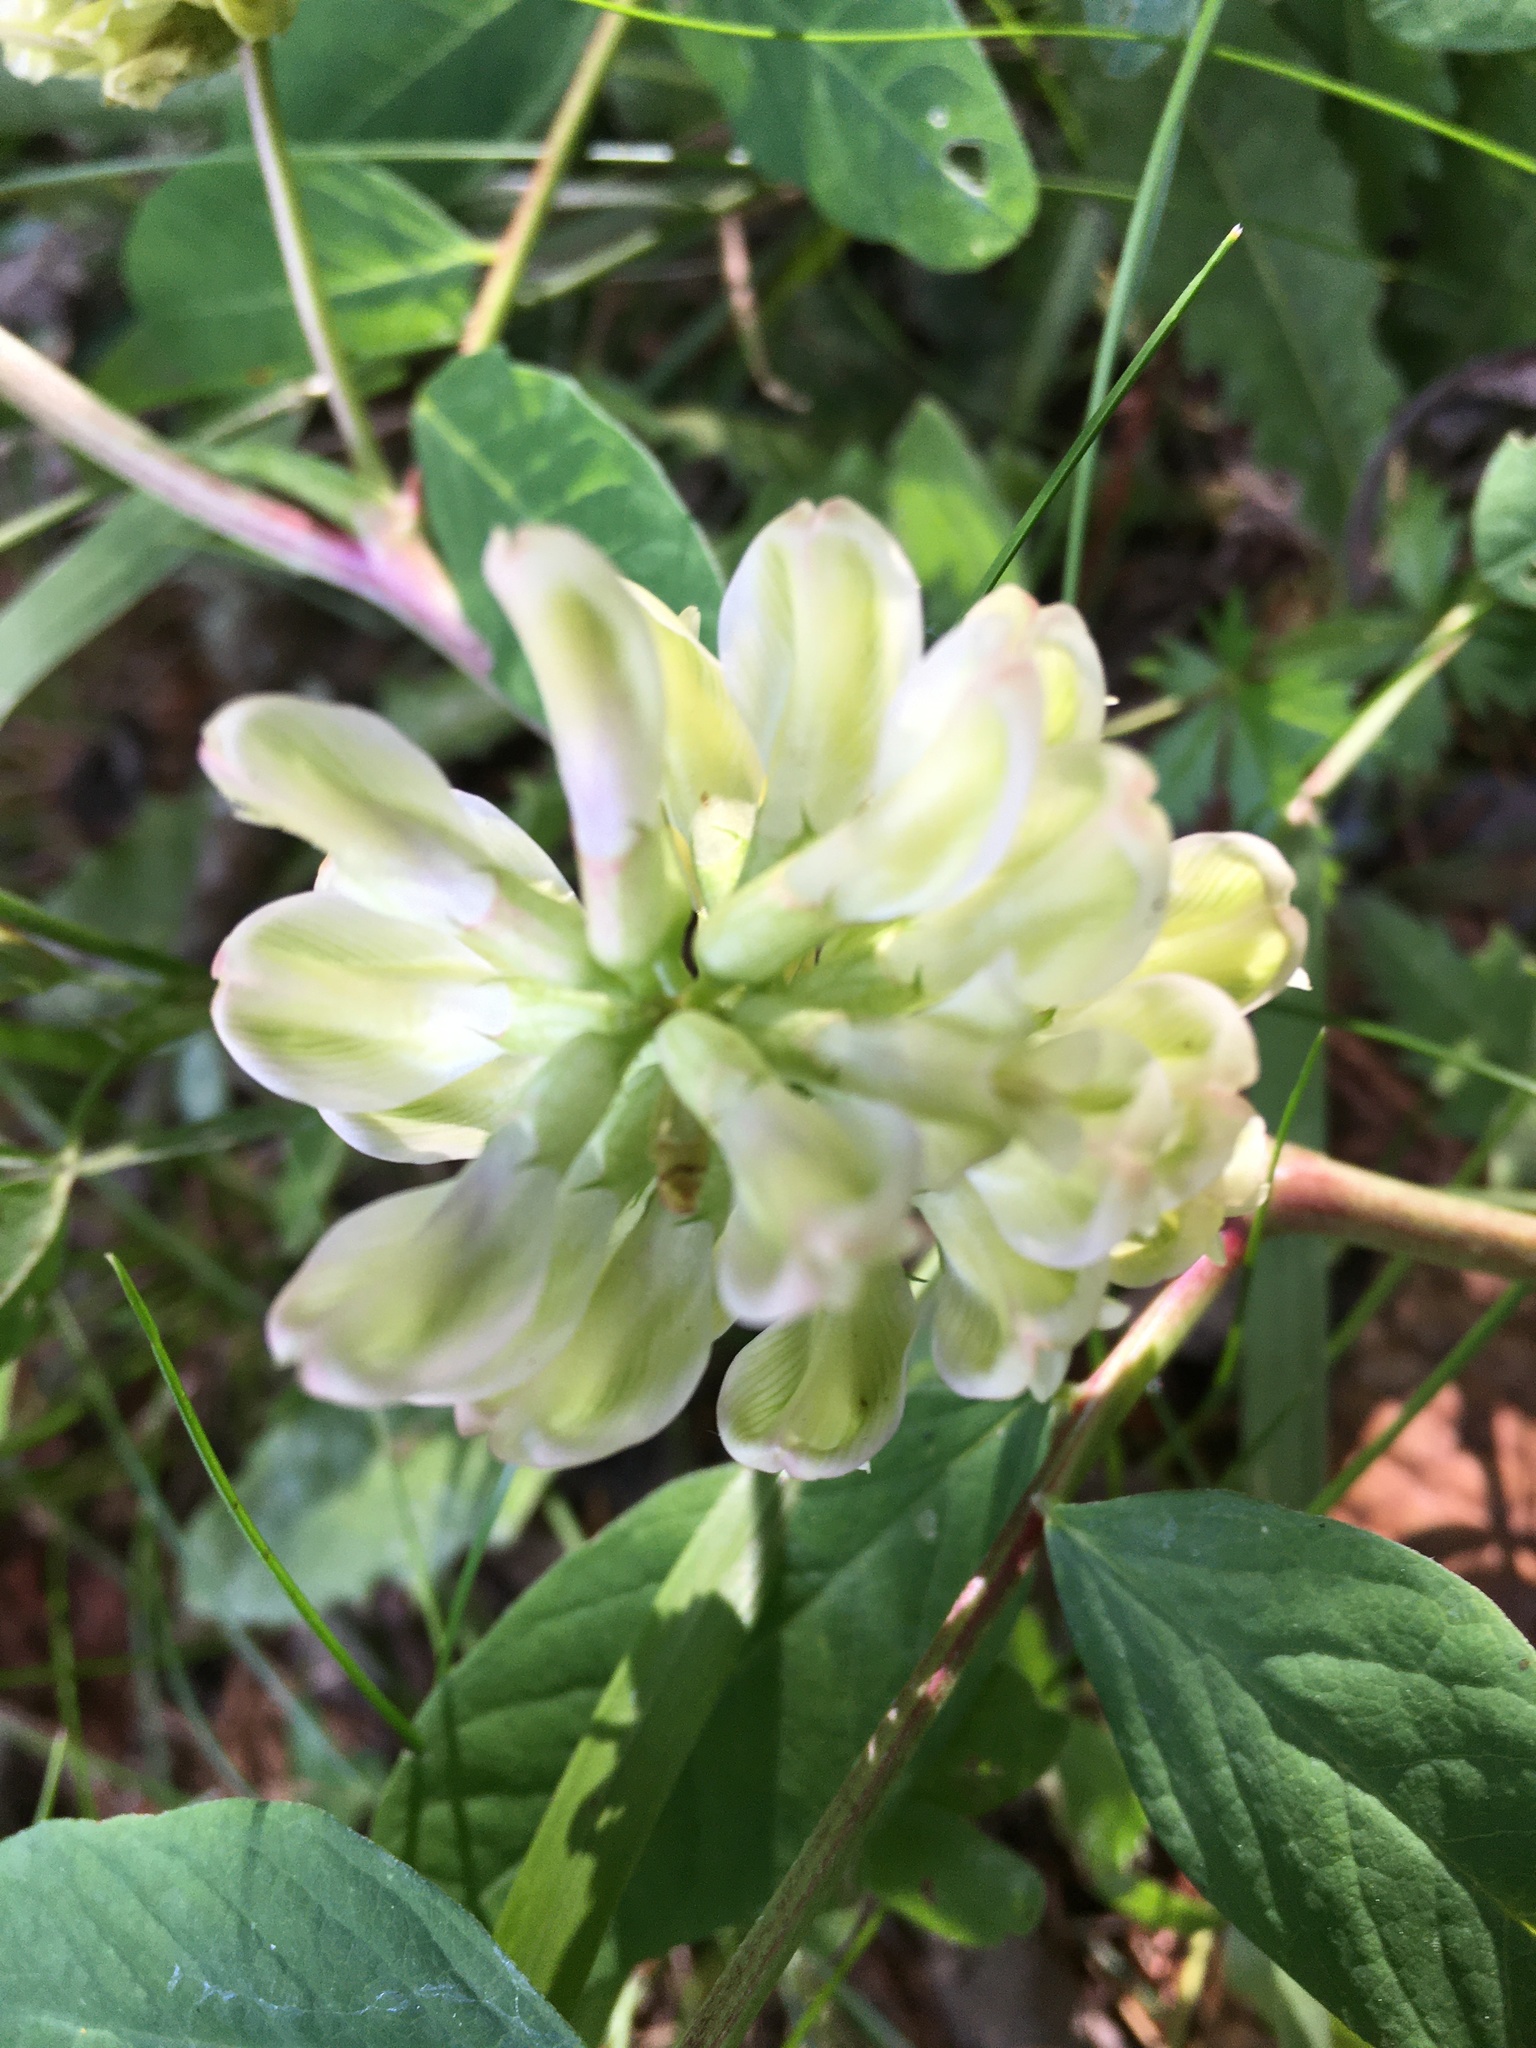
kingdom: Plantae
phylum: Tracheophyta
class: Magnoliopsida
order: Fabales
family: Fabaceae
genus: Astragalus
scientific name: Astragalus glycyphyllos
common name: Wild liquorice
